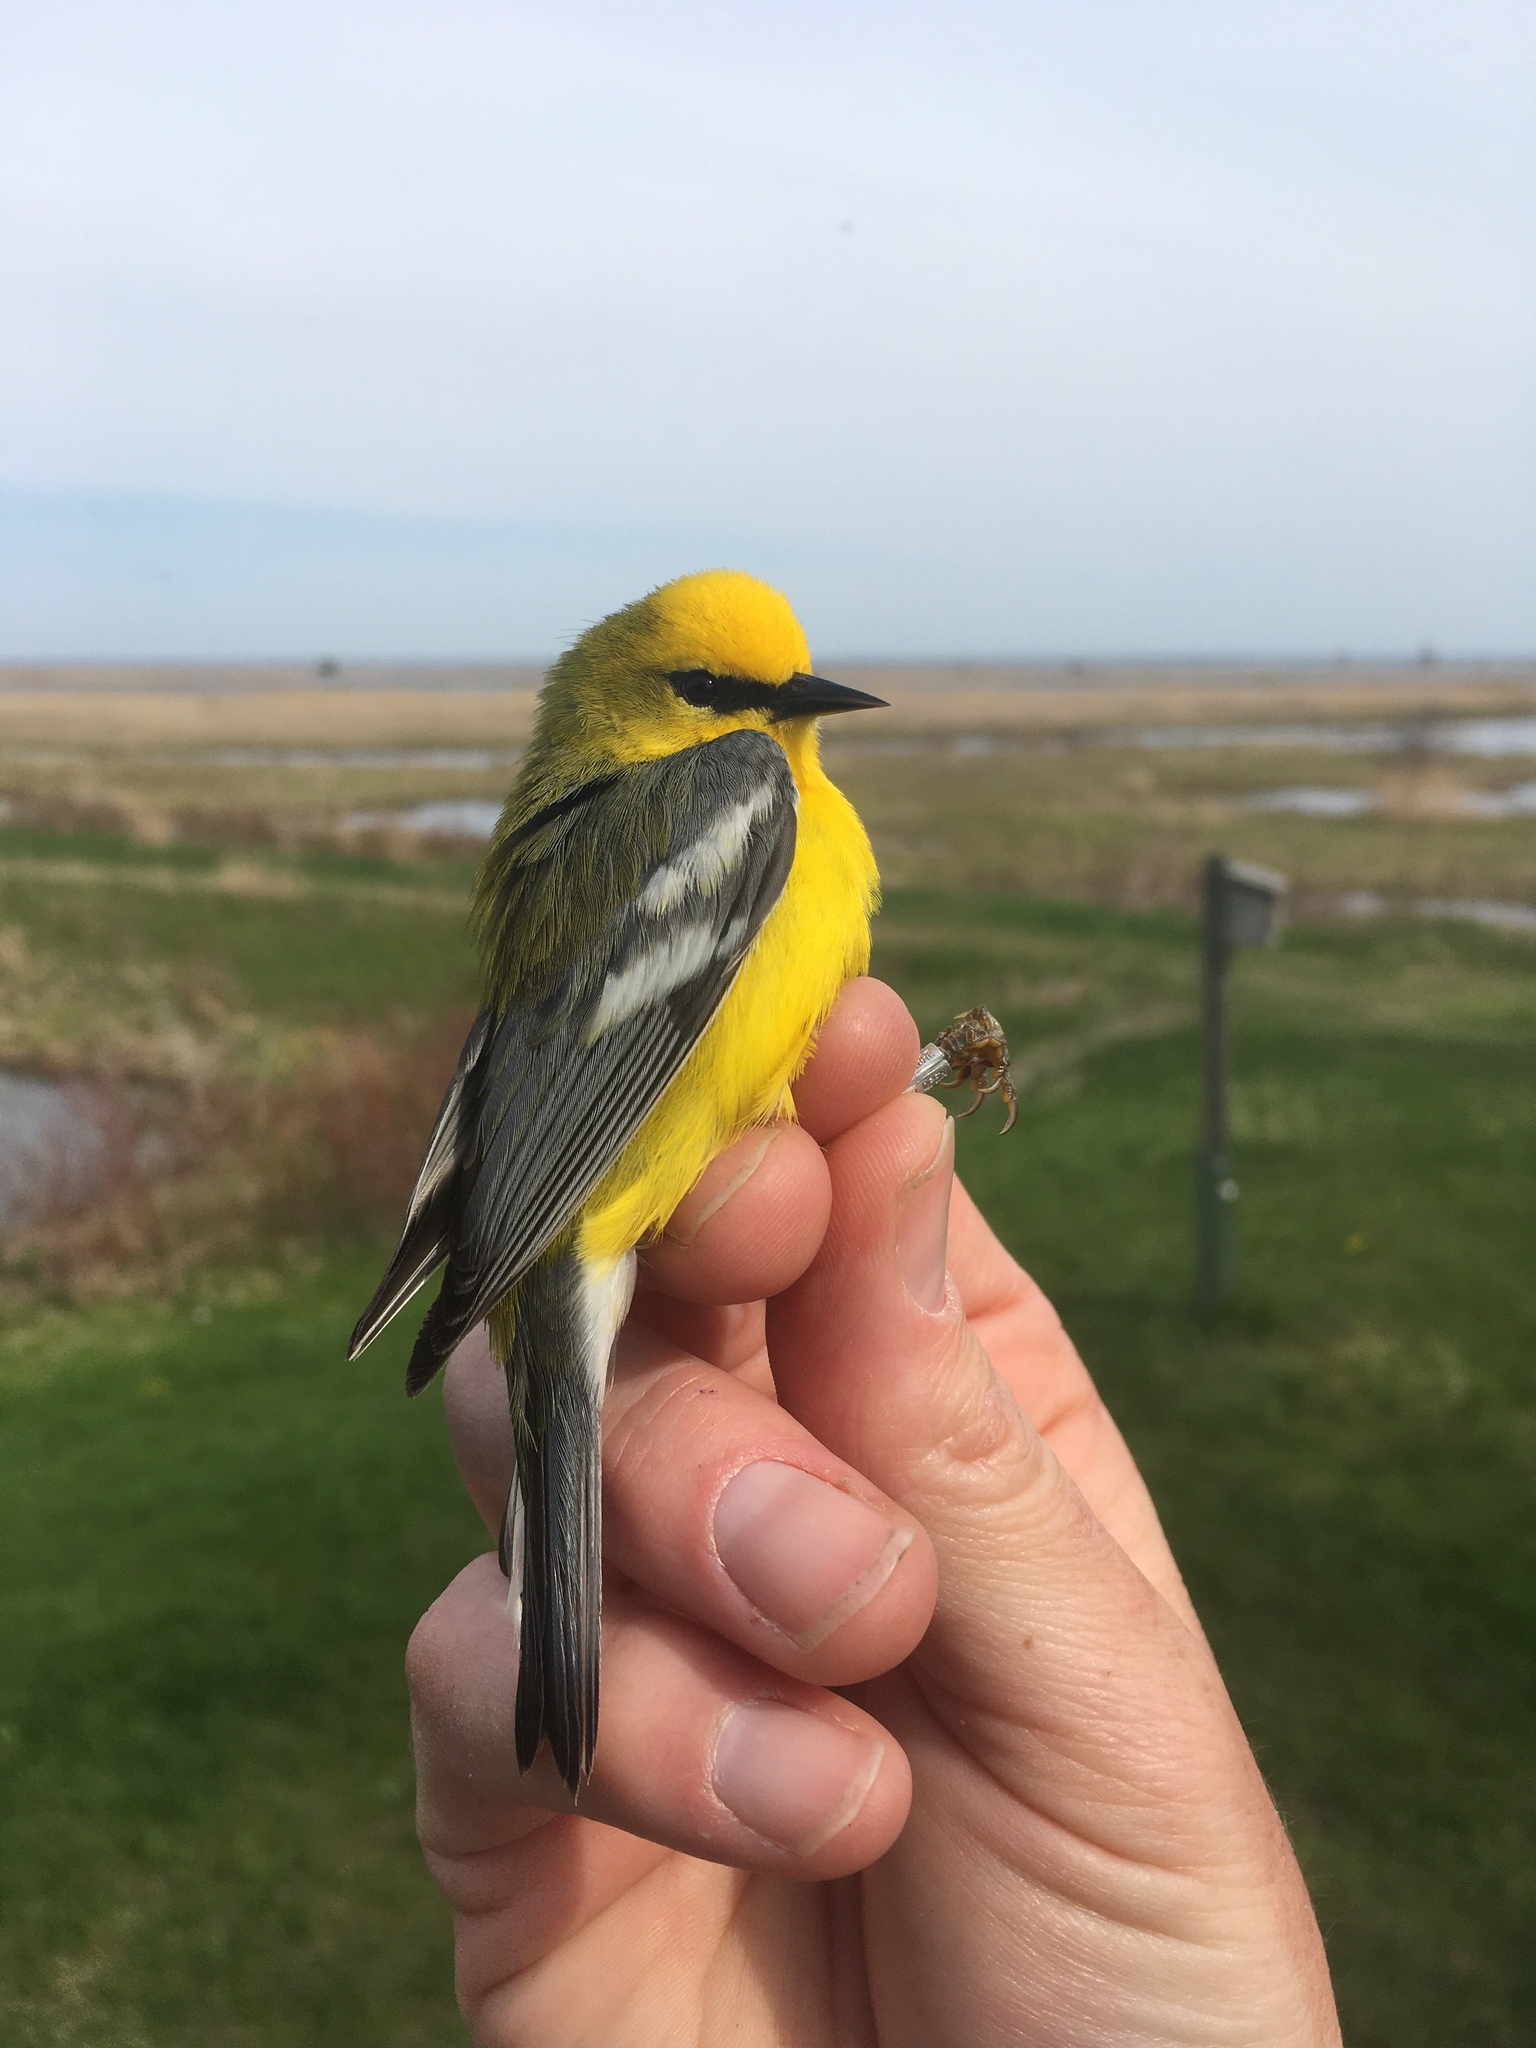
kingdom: Animalia
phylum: Chordata
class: Aves
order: Passeriformes
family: Parulidae
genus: Vermivora
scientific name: Vermivora cyanoptera
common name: Blue-winged warbler
